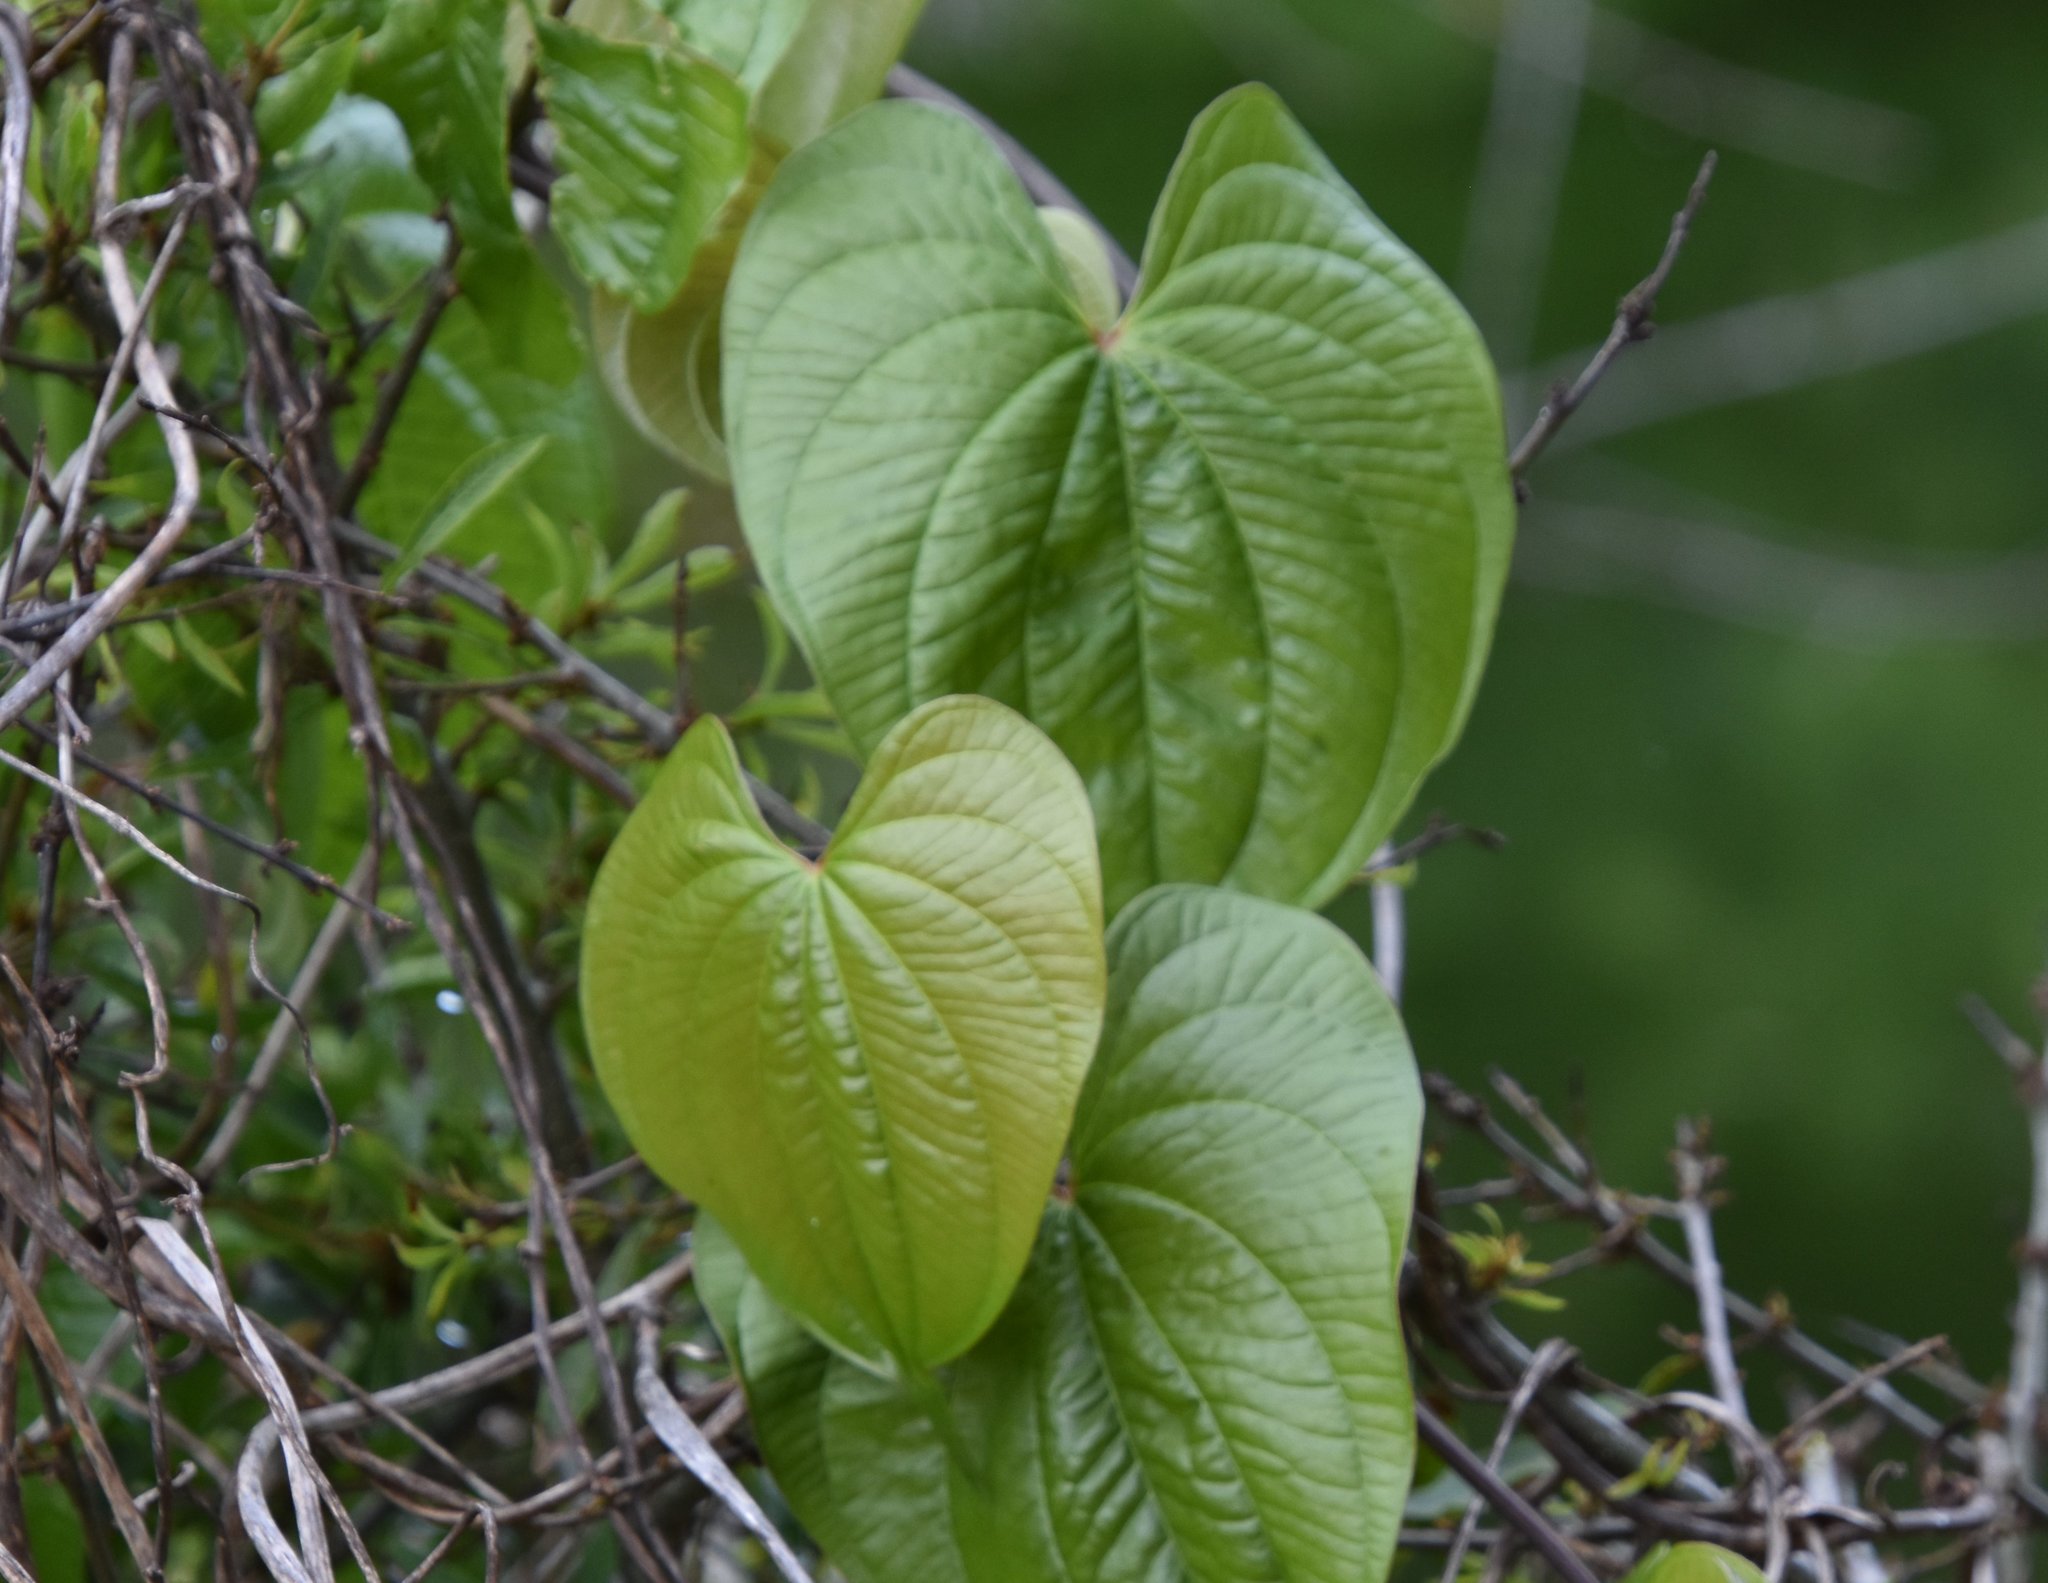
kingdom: Plantae
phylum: Tracheophyta
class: Liliopsida
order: Dioscoreales
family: Dioscoreaceae
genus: Dioscorea
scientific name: Dioscorea bulbifera
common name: Air yam
